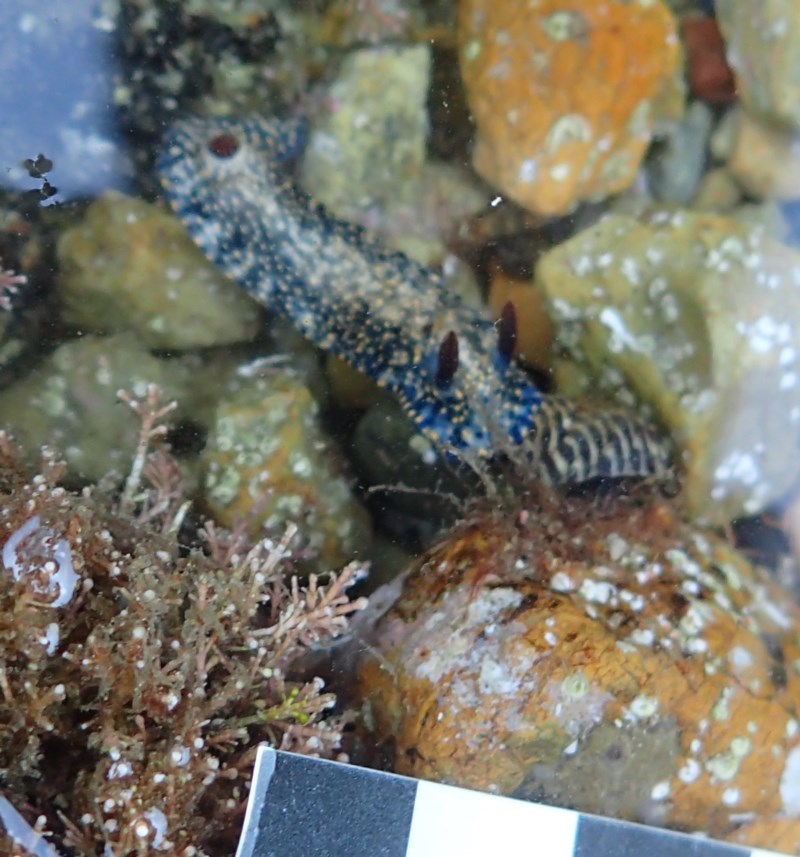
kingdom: Animalia
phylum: Mollusca
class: Gastropoda
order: Nudibranchia
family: Chromodorididae
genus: Hypselodoris
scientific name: Hypselodoris obscura
